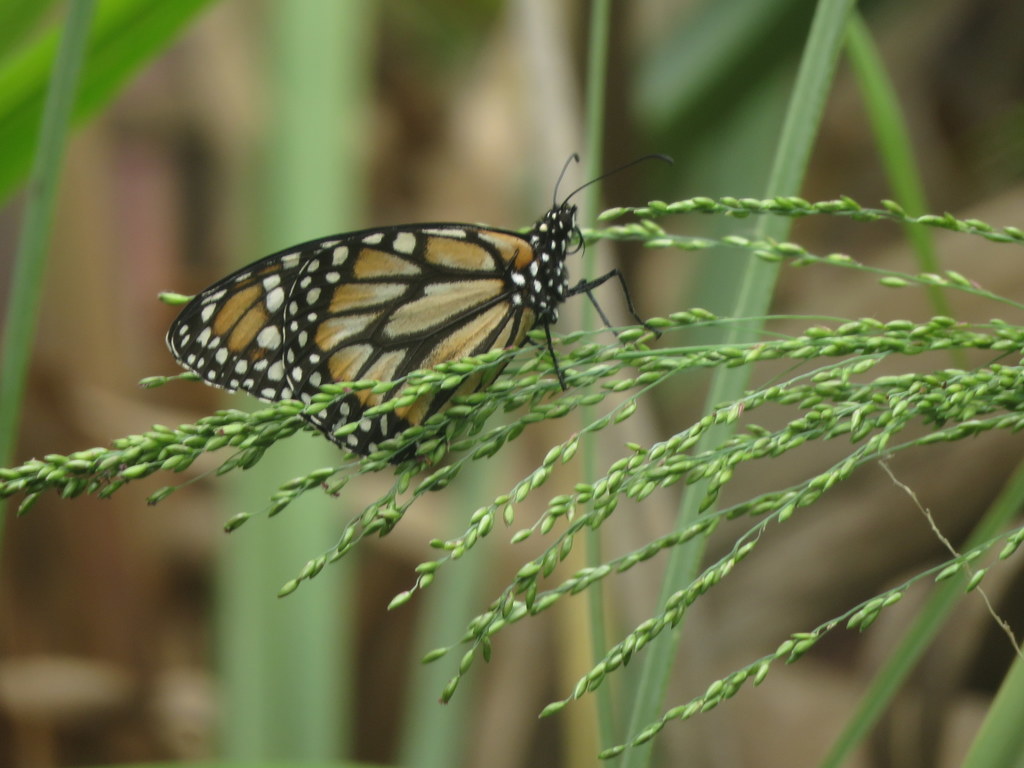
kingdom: Animalia
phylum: Arthropoda
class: Insecta
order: Lepidoptera
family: Nymphalidae
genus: Danaus
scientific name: Danaus erippus
